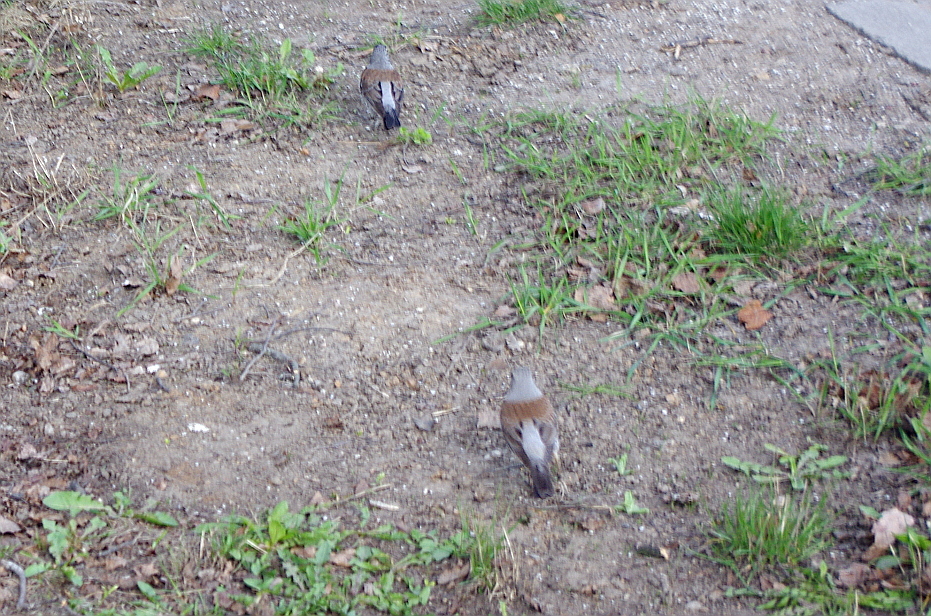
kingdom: Animalia
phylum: Chordata
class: Aves
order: Passeriformes
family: Turdidae
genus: Turdus
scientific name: Turdus pilaris
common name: Fieldfare
